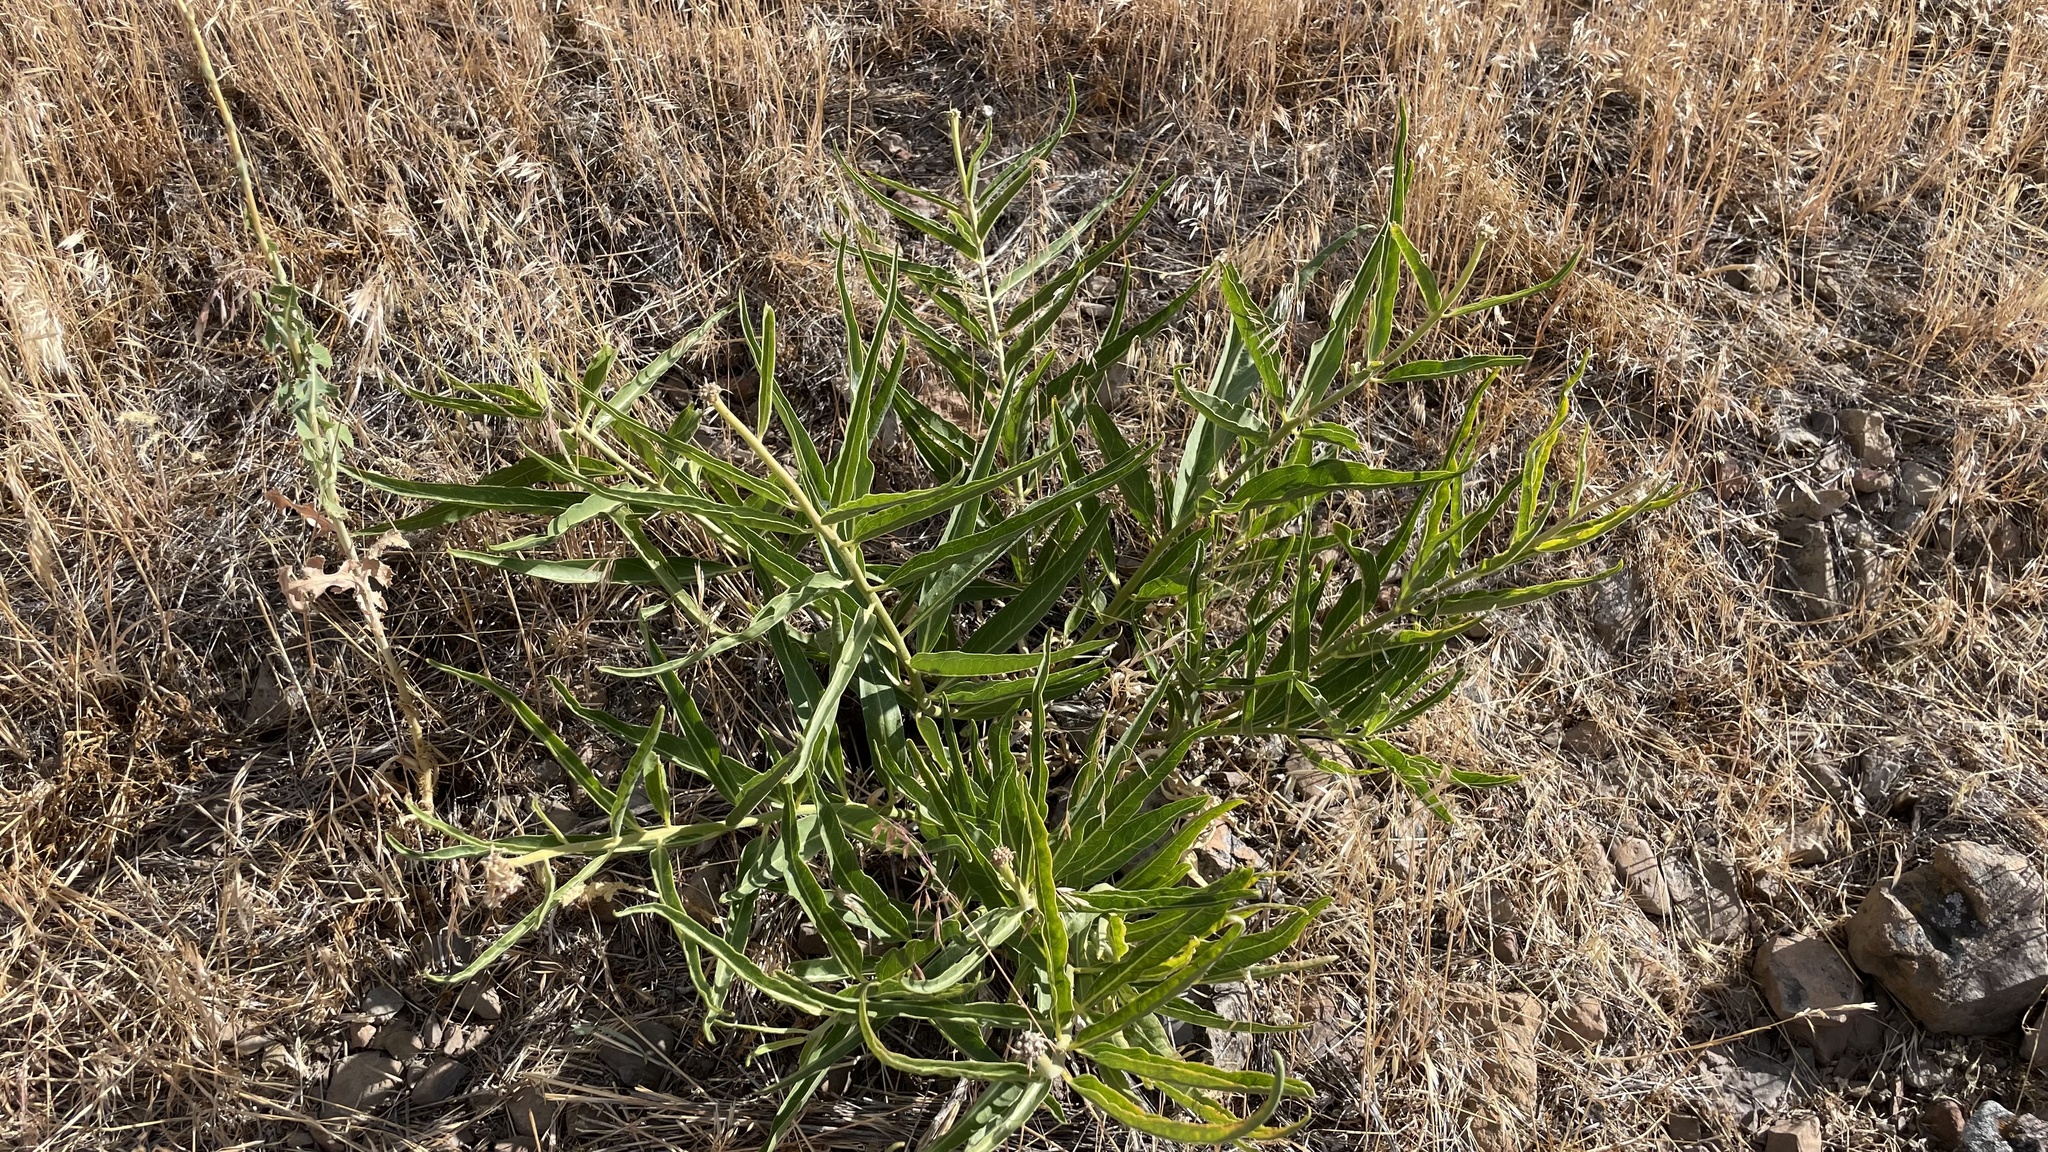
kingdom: Plantae
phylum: Tracheophyta
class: Magnoliopsida
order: Gentianales
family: Apocynaceae
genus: Asclepias
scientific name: Asclepias asperula
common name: Antelope horns
